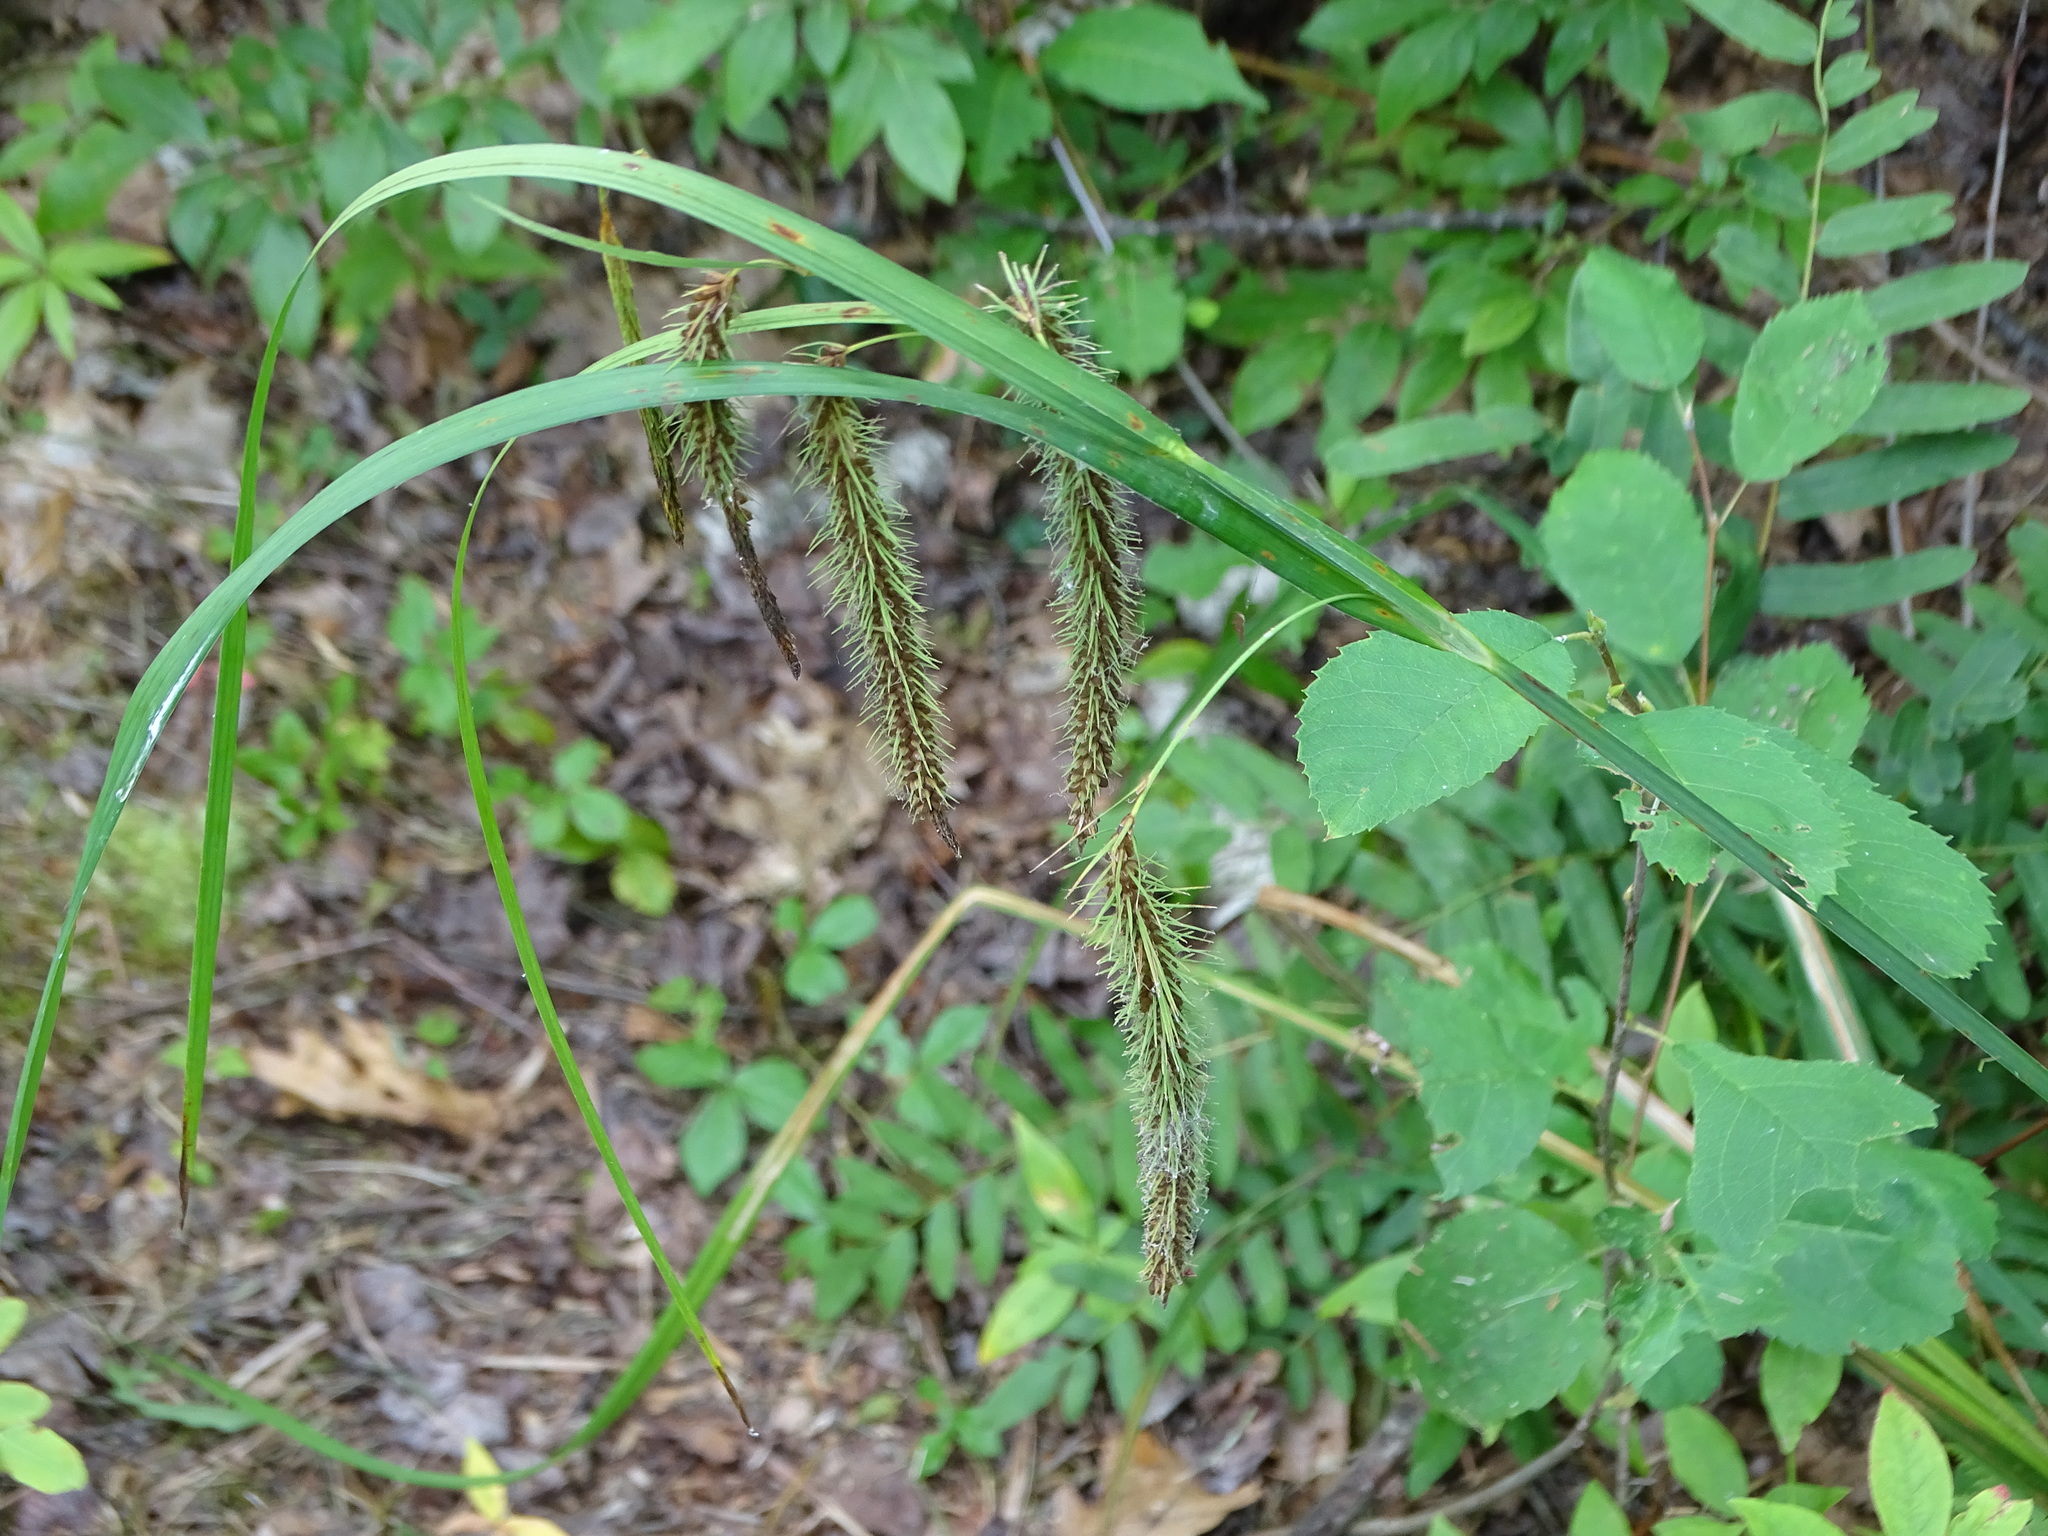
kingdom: Plantae
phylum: Tracheophyta
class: Liliopsida
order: Poales
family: Cyperaceae
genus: Carex
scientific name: Carex crinita
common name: Fringed sedge
